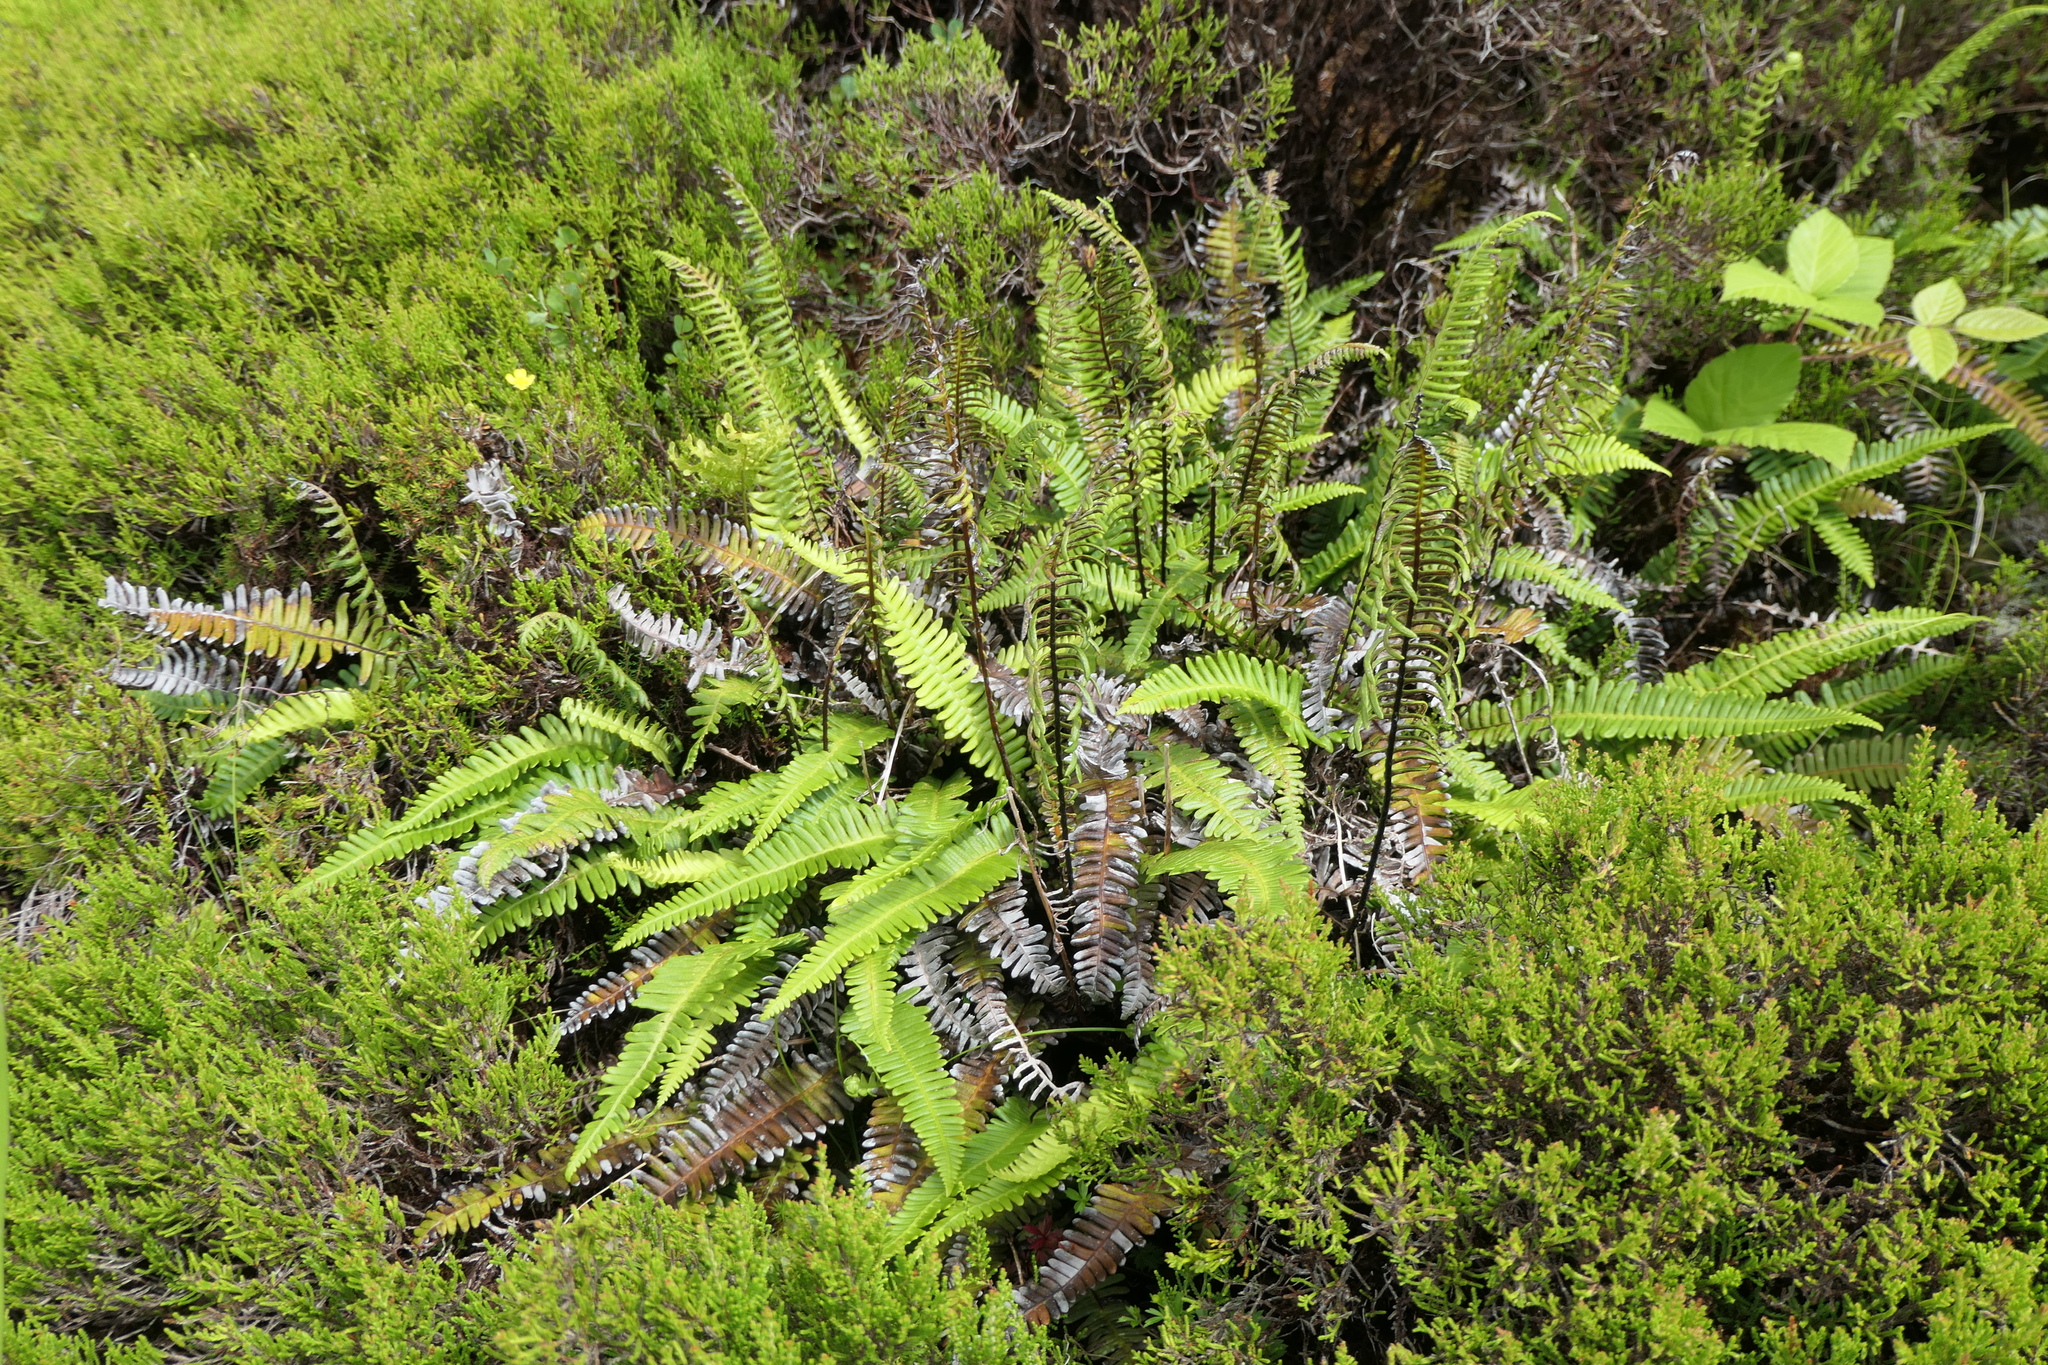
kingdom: Plantae
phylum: Tracheophyta
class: Polypodiopsida
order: Polypodiales
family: Blechnaceae
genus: Struthiopteris
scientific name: Struthiopteris spicant
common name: Deer fern
